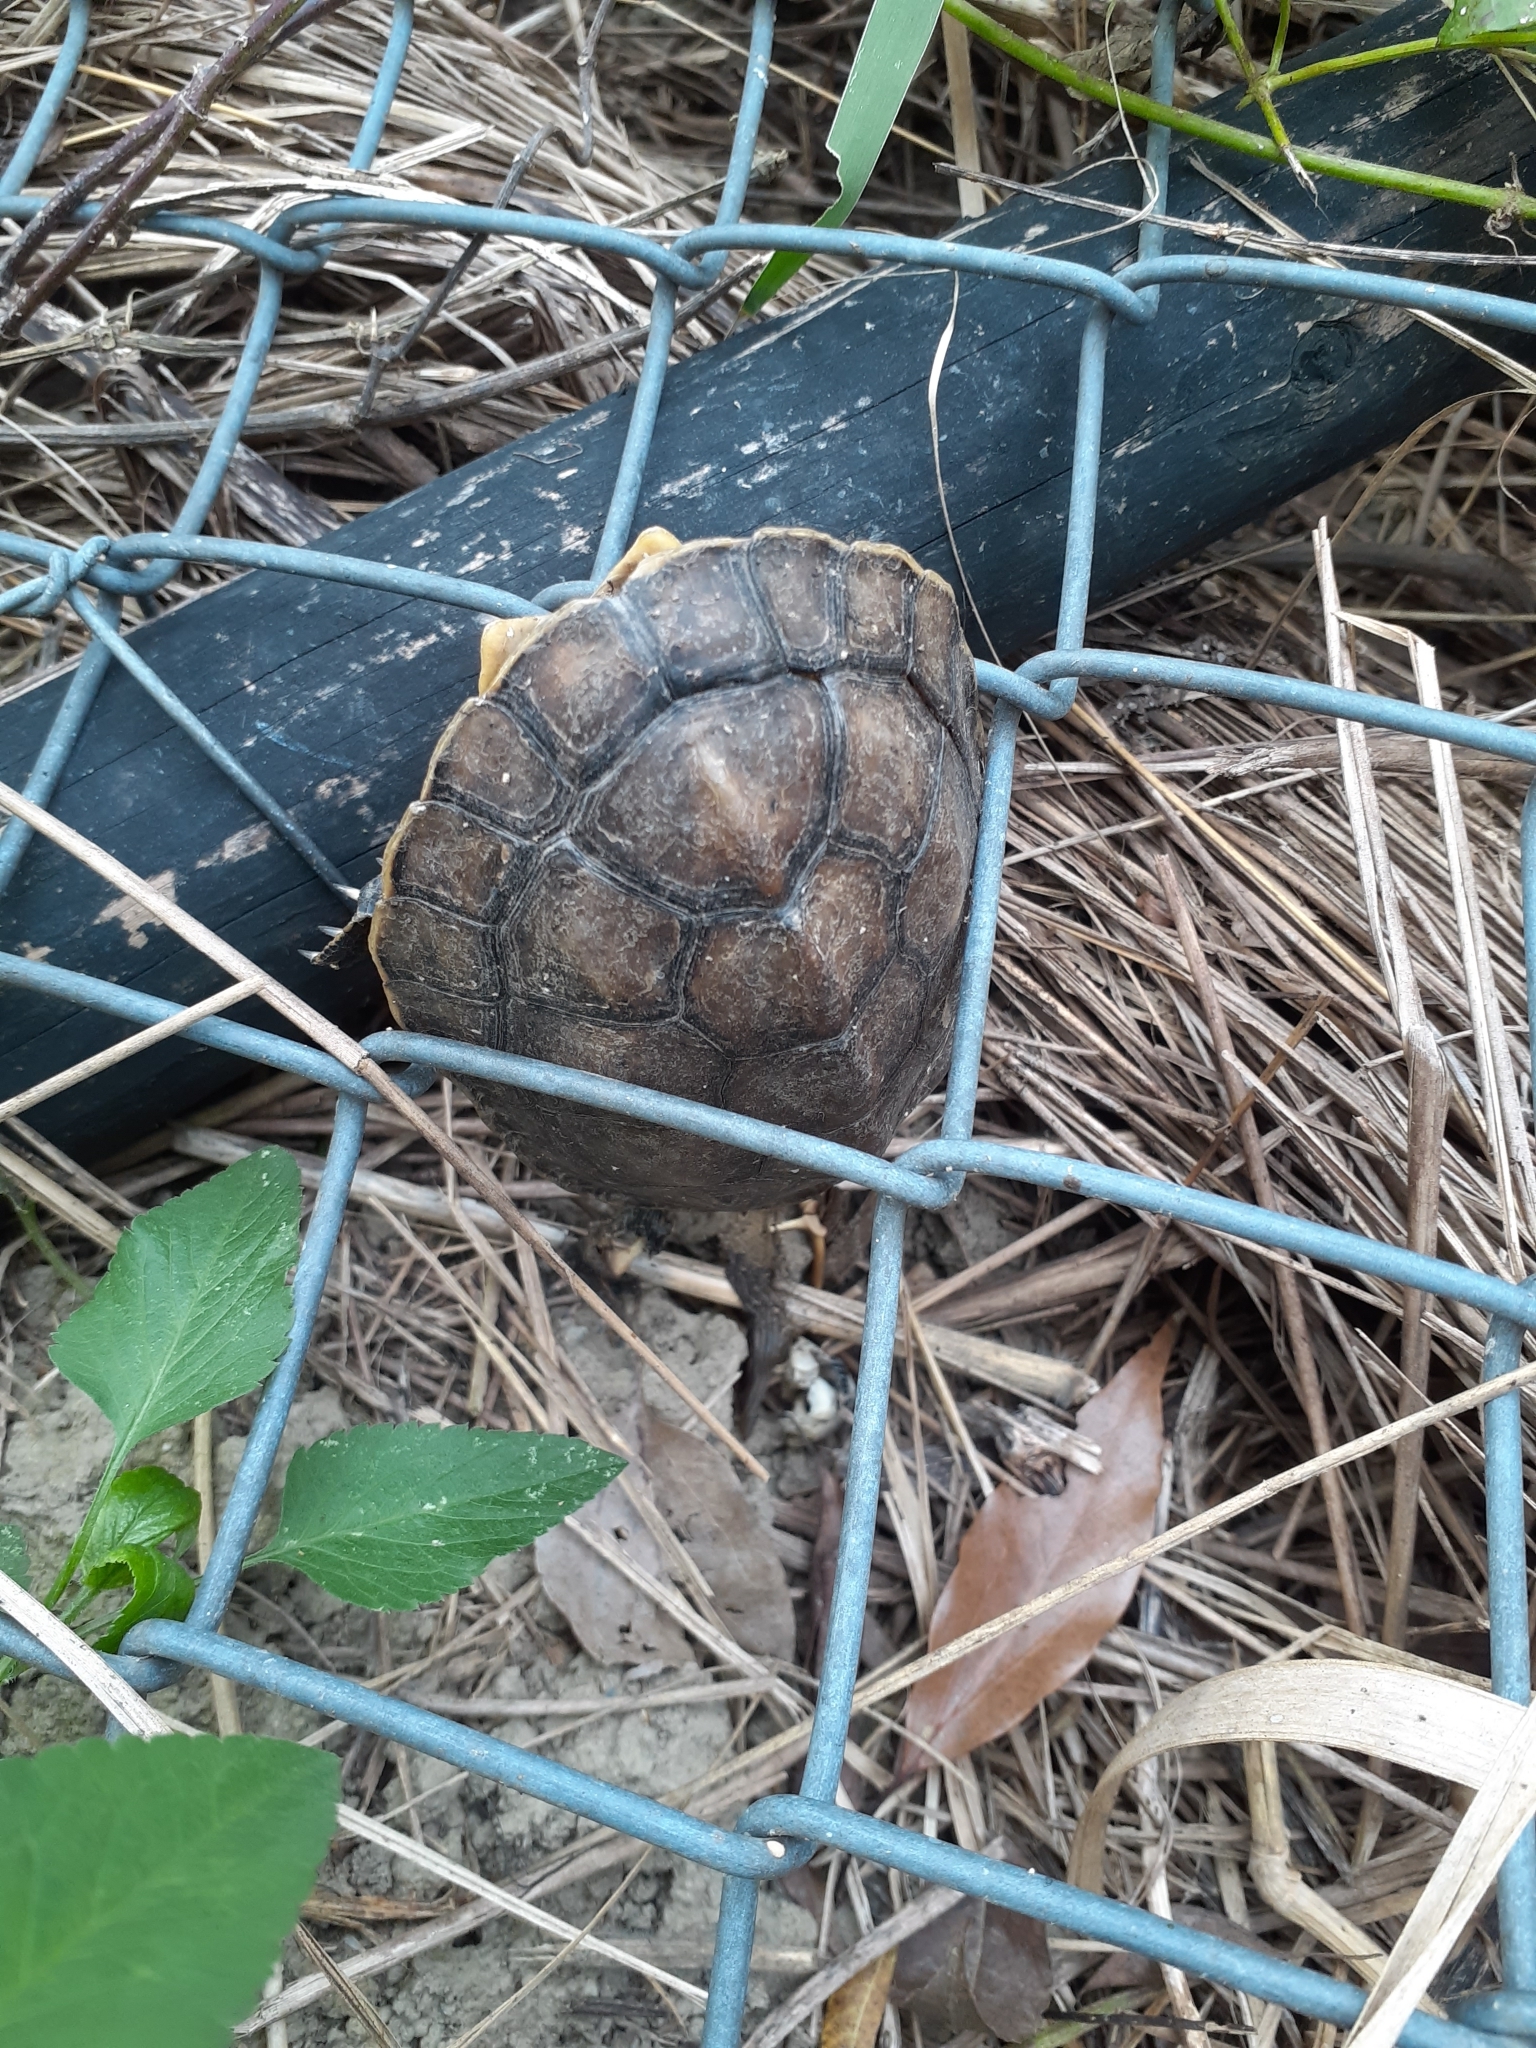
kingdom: Animalia
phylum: Chordata
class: Testudines
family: Geoemydidae
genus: Mauremys
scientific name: Mauremys sinensis
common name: Chinese stripe-necked turtle
